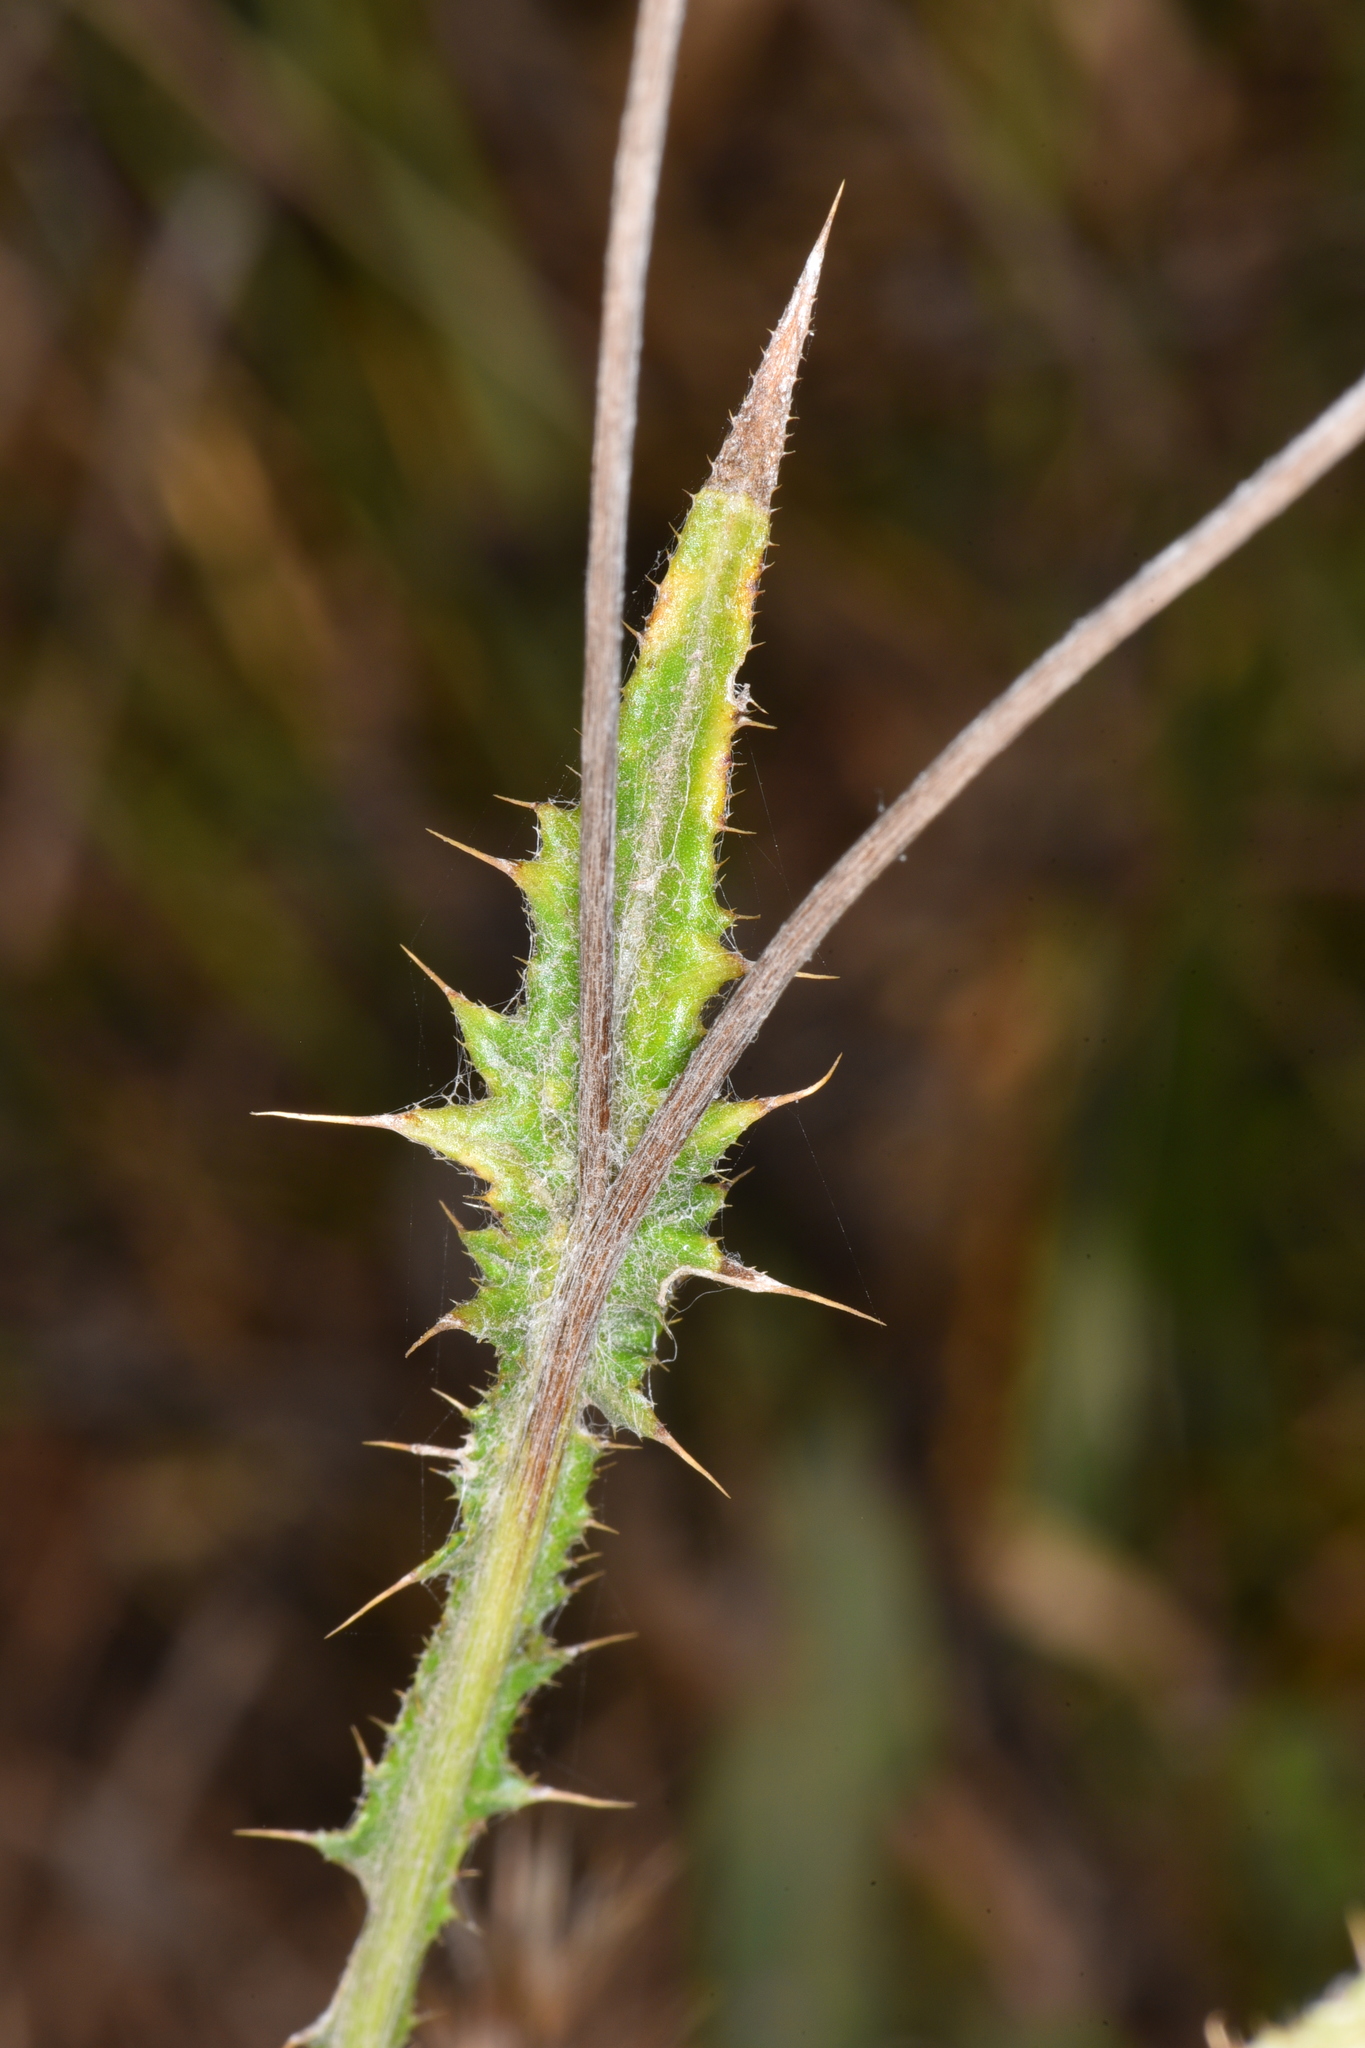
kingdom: Plantae
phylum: Tracheophyta
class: Magnoliopsida
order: Asterales
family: Asteraceae
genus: Carduus
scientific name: Carduus pycnocephalus
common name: Plymouth thistle
